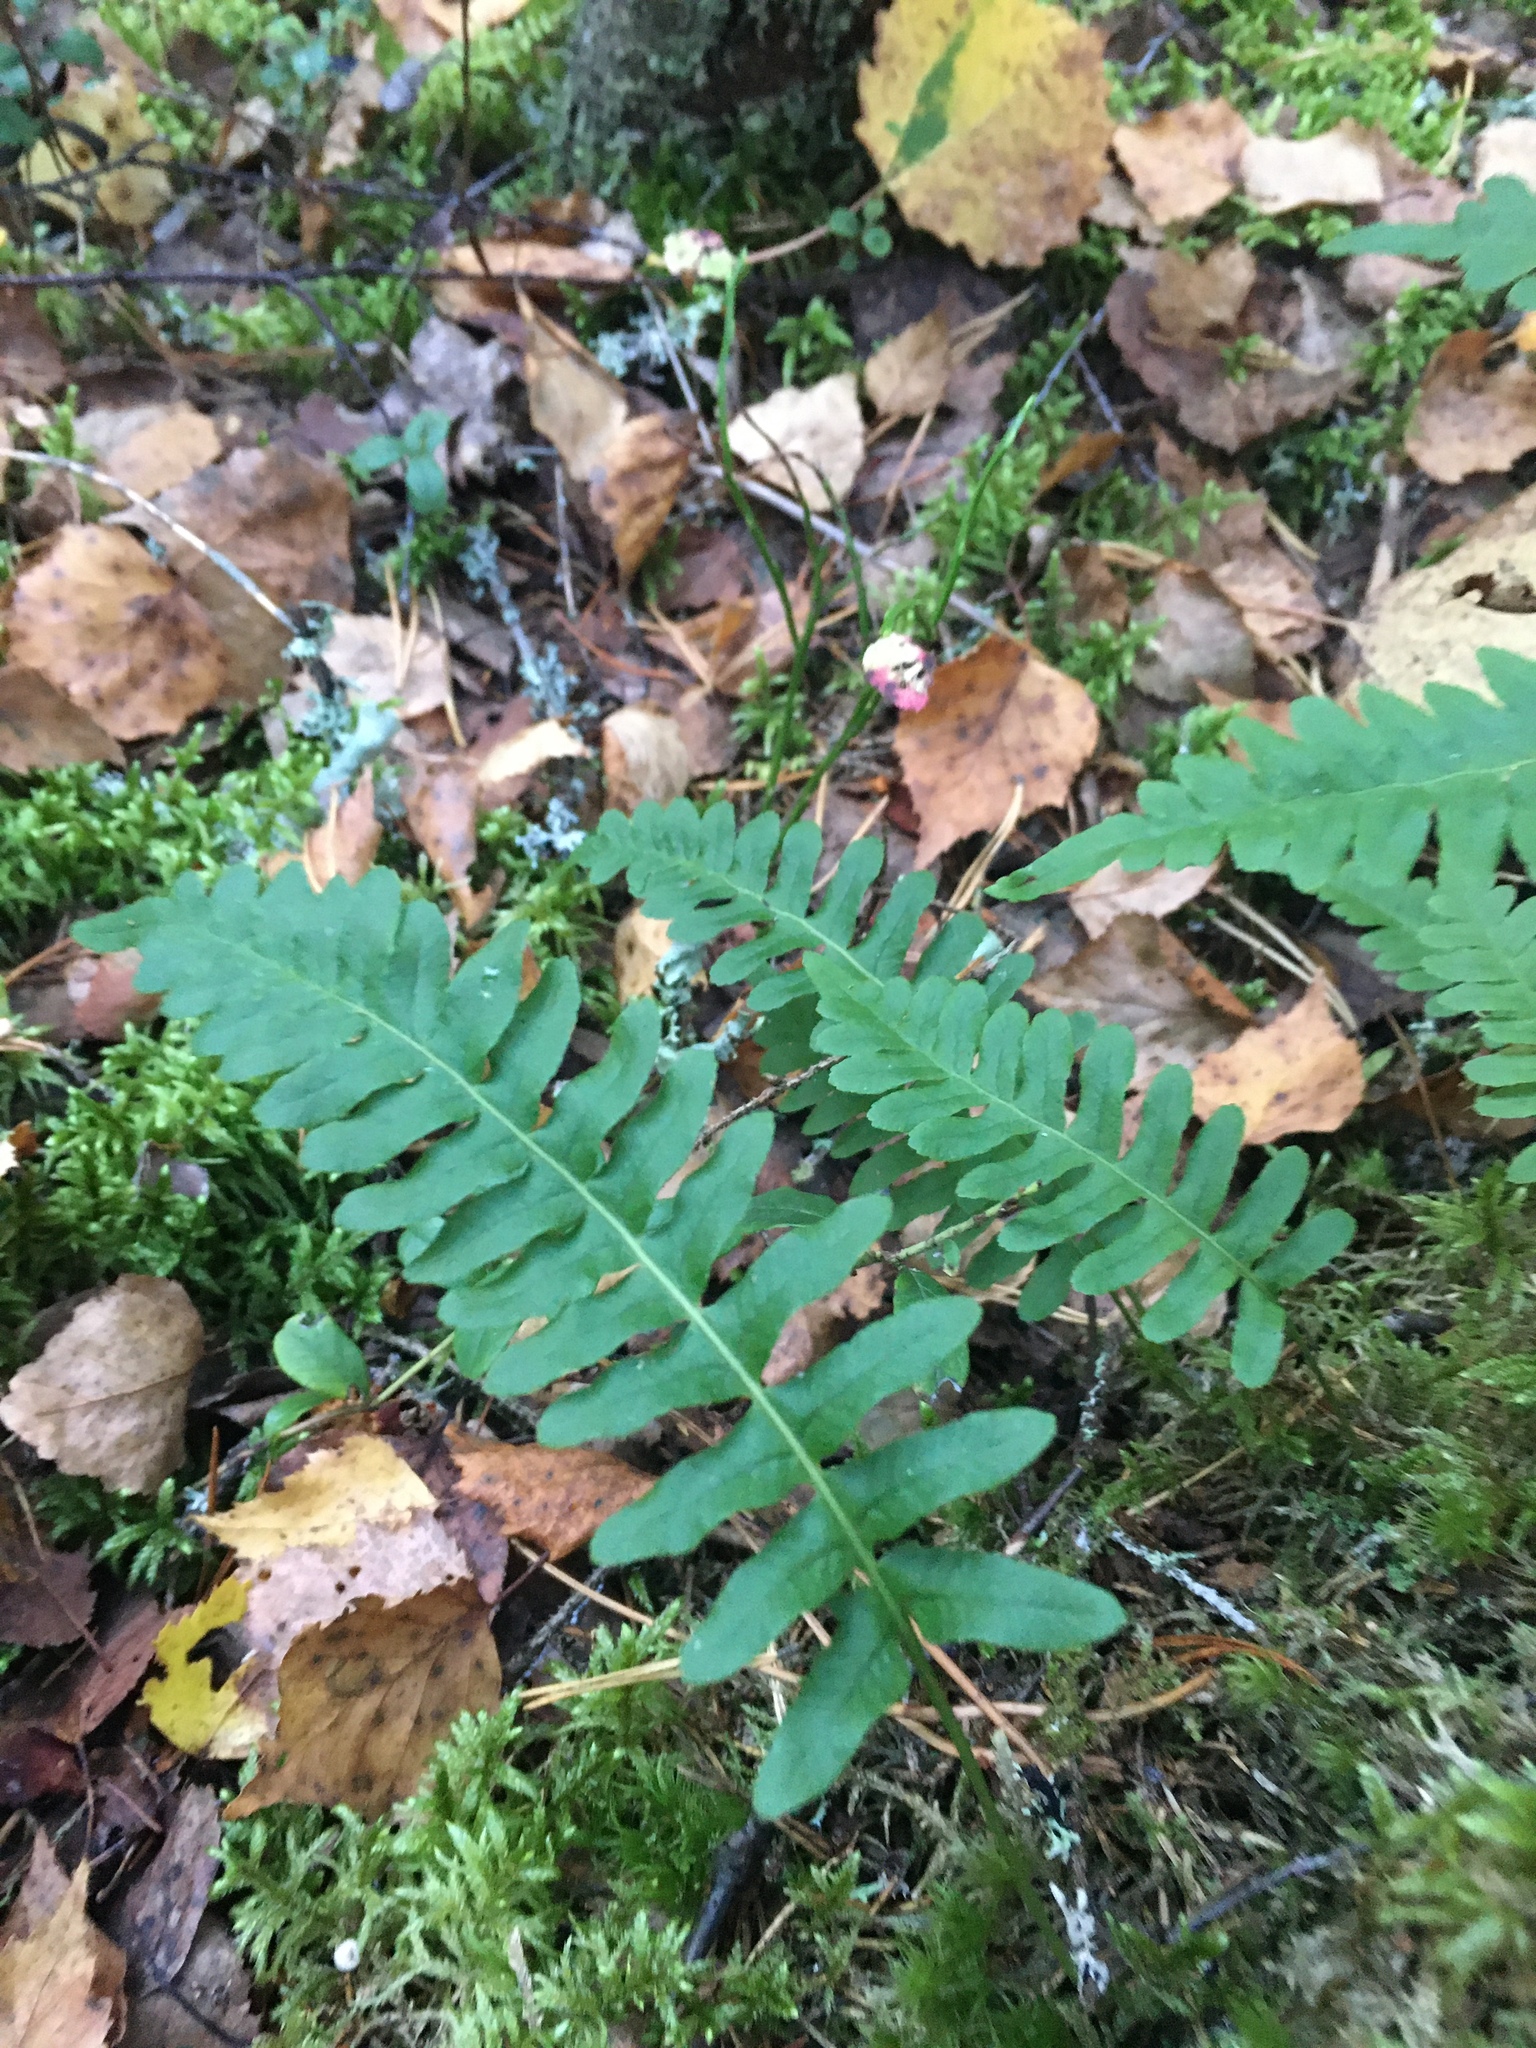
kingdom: Plantae
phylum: Tracheophyta
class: Polypodiopsida
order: Polypodiales
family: Polypodiaceae
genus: Polypodium
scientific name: Polypodium vulgare
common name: Common polypody
